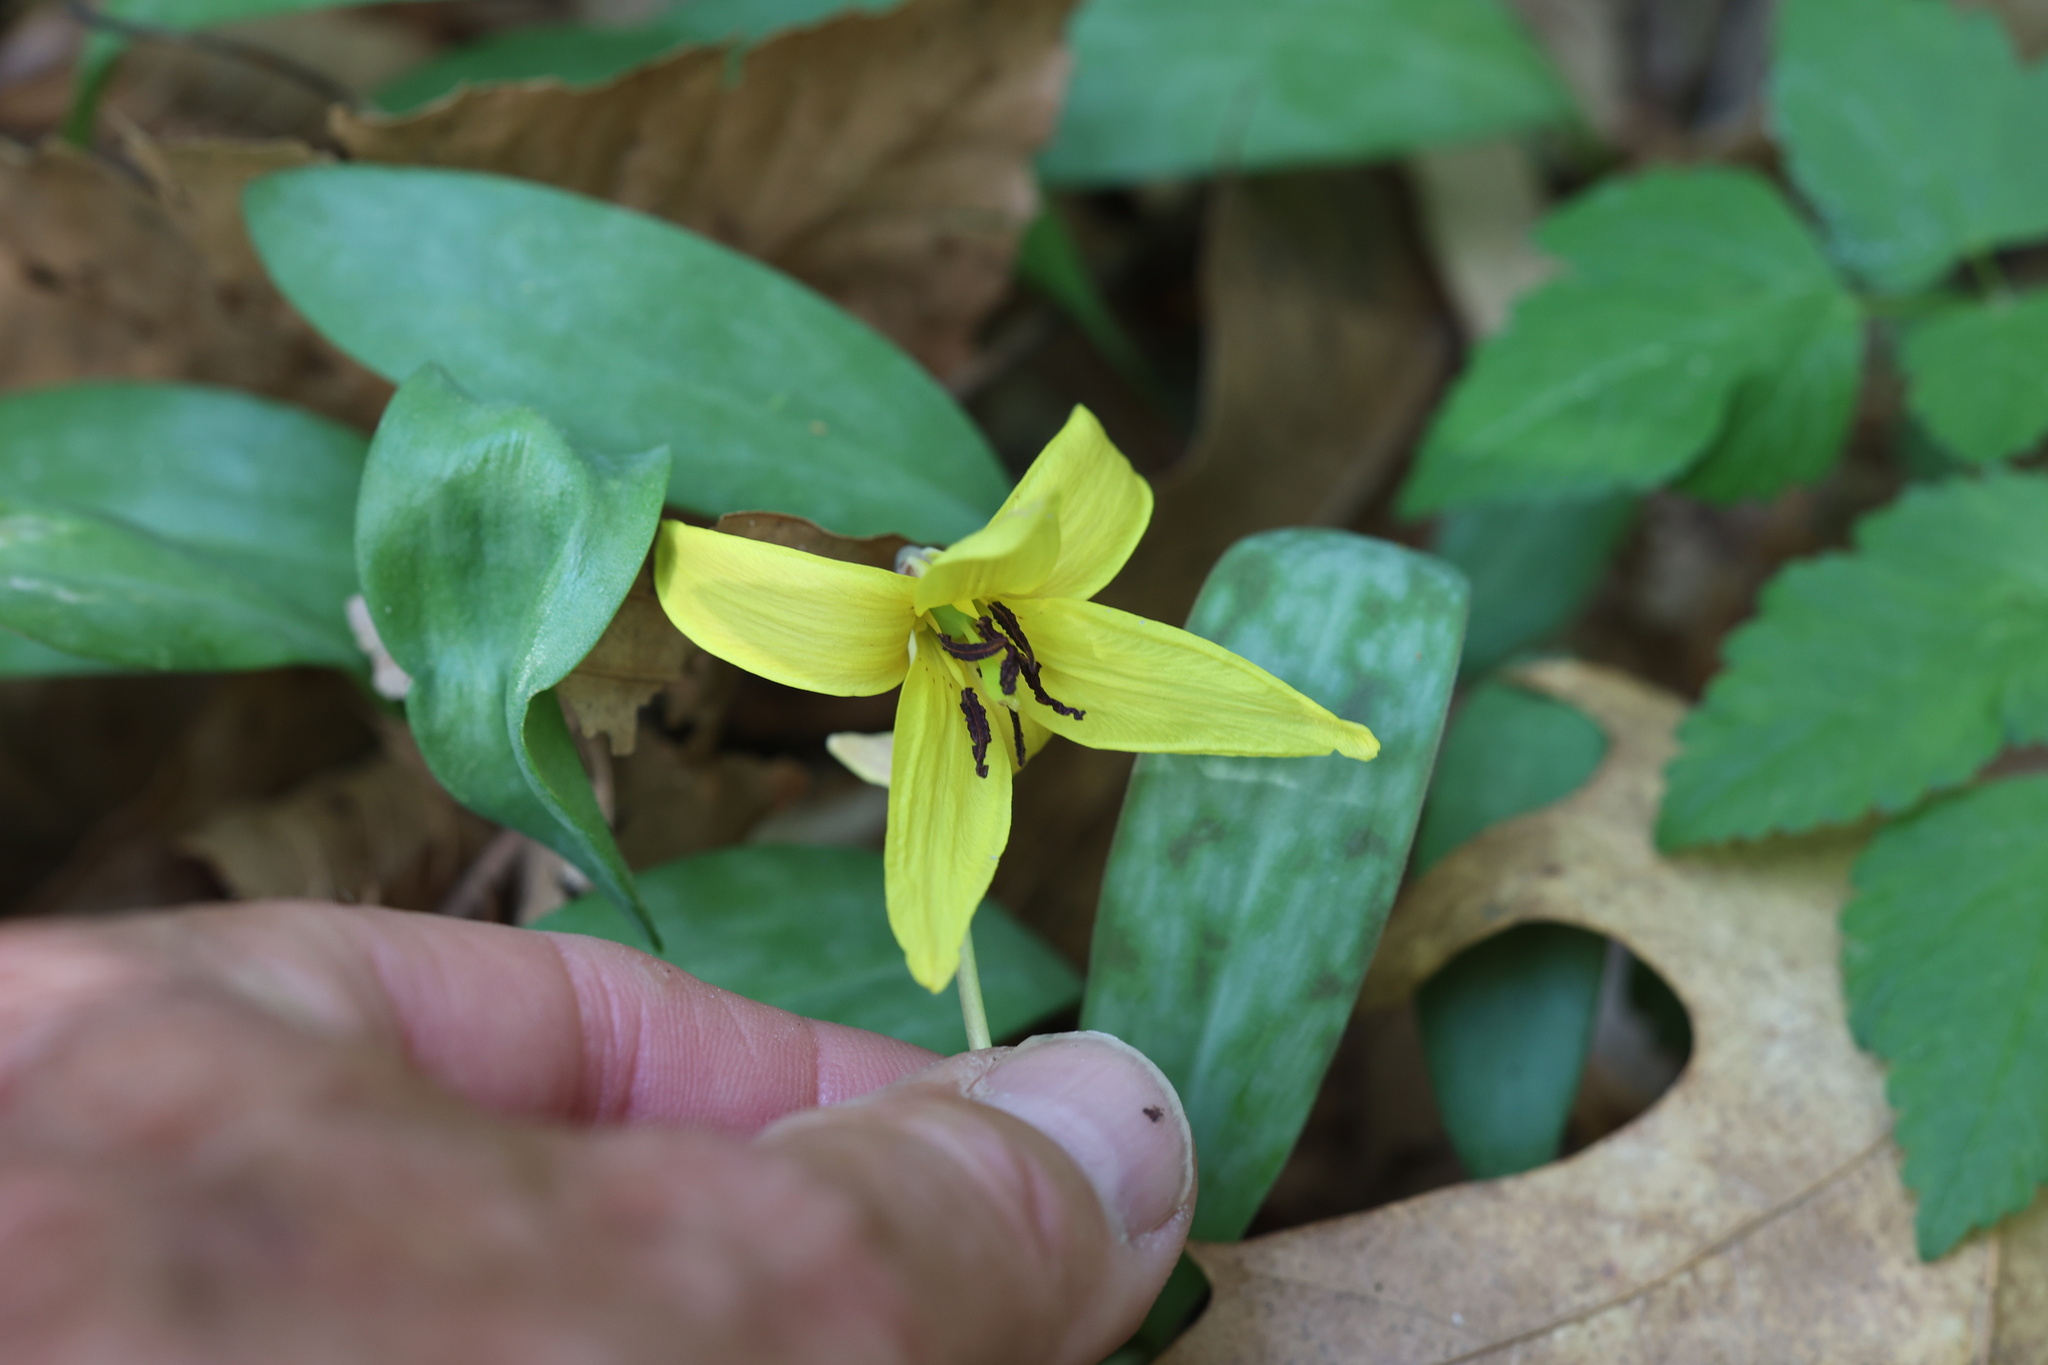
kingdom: Plantae
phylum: Tracheophyta
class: Liliopsida
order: Liliales
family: Liliaceae
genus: Erythronium
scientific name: Erythronium americanum
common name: Yellow adder's-tongue
